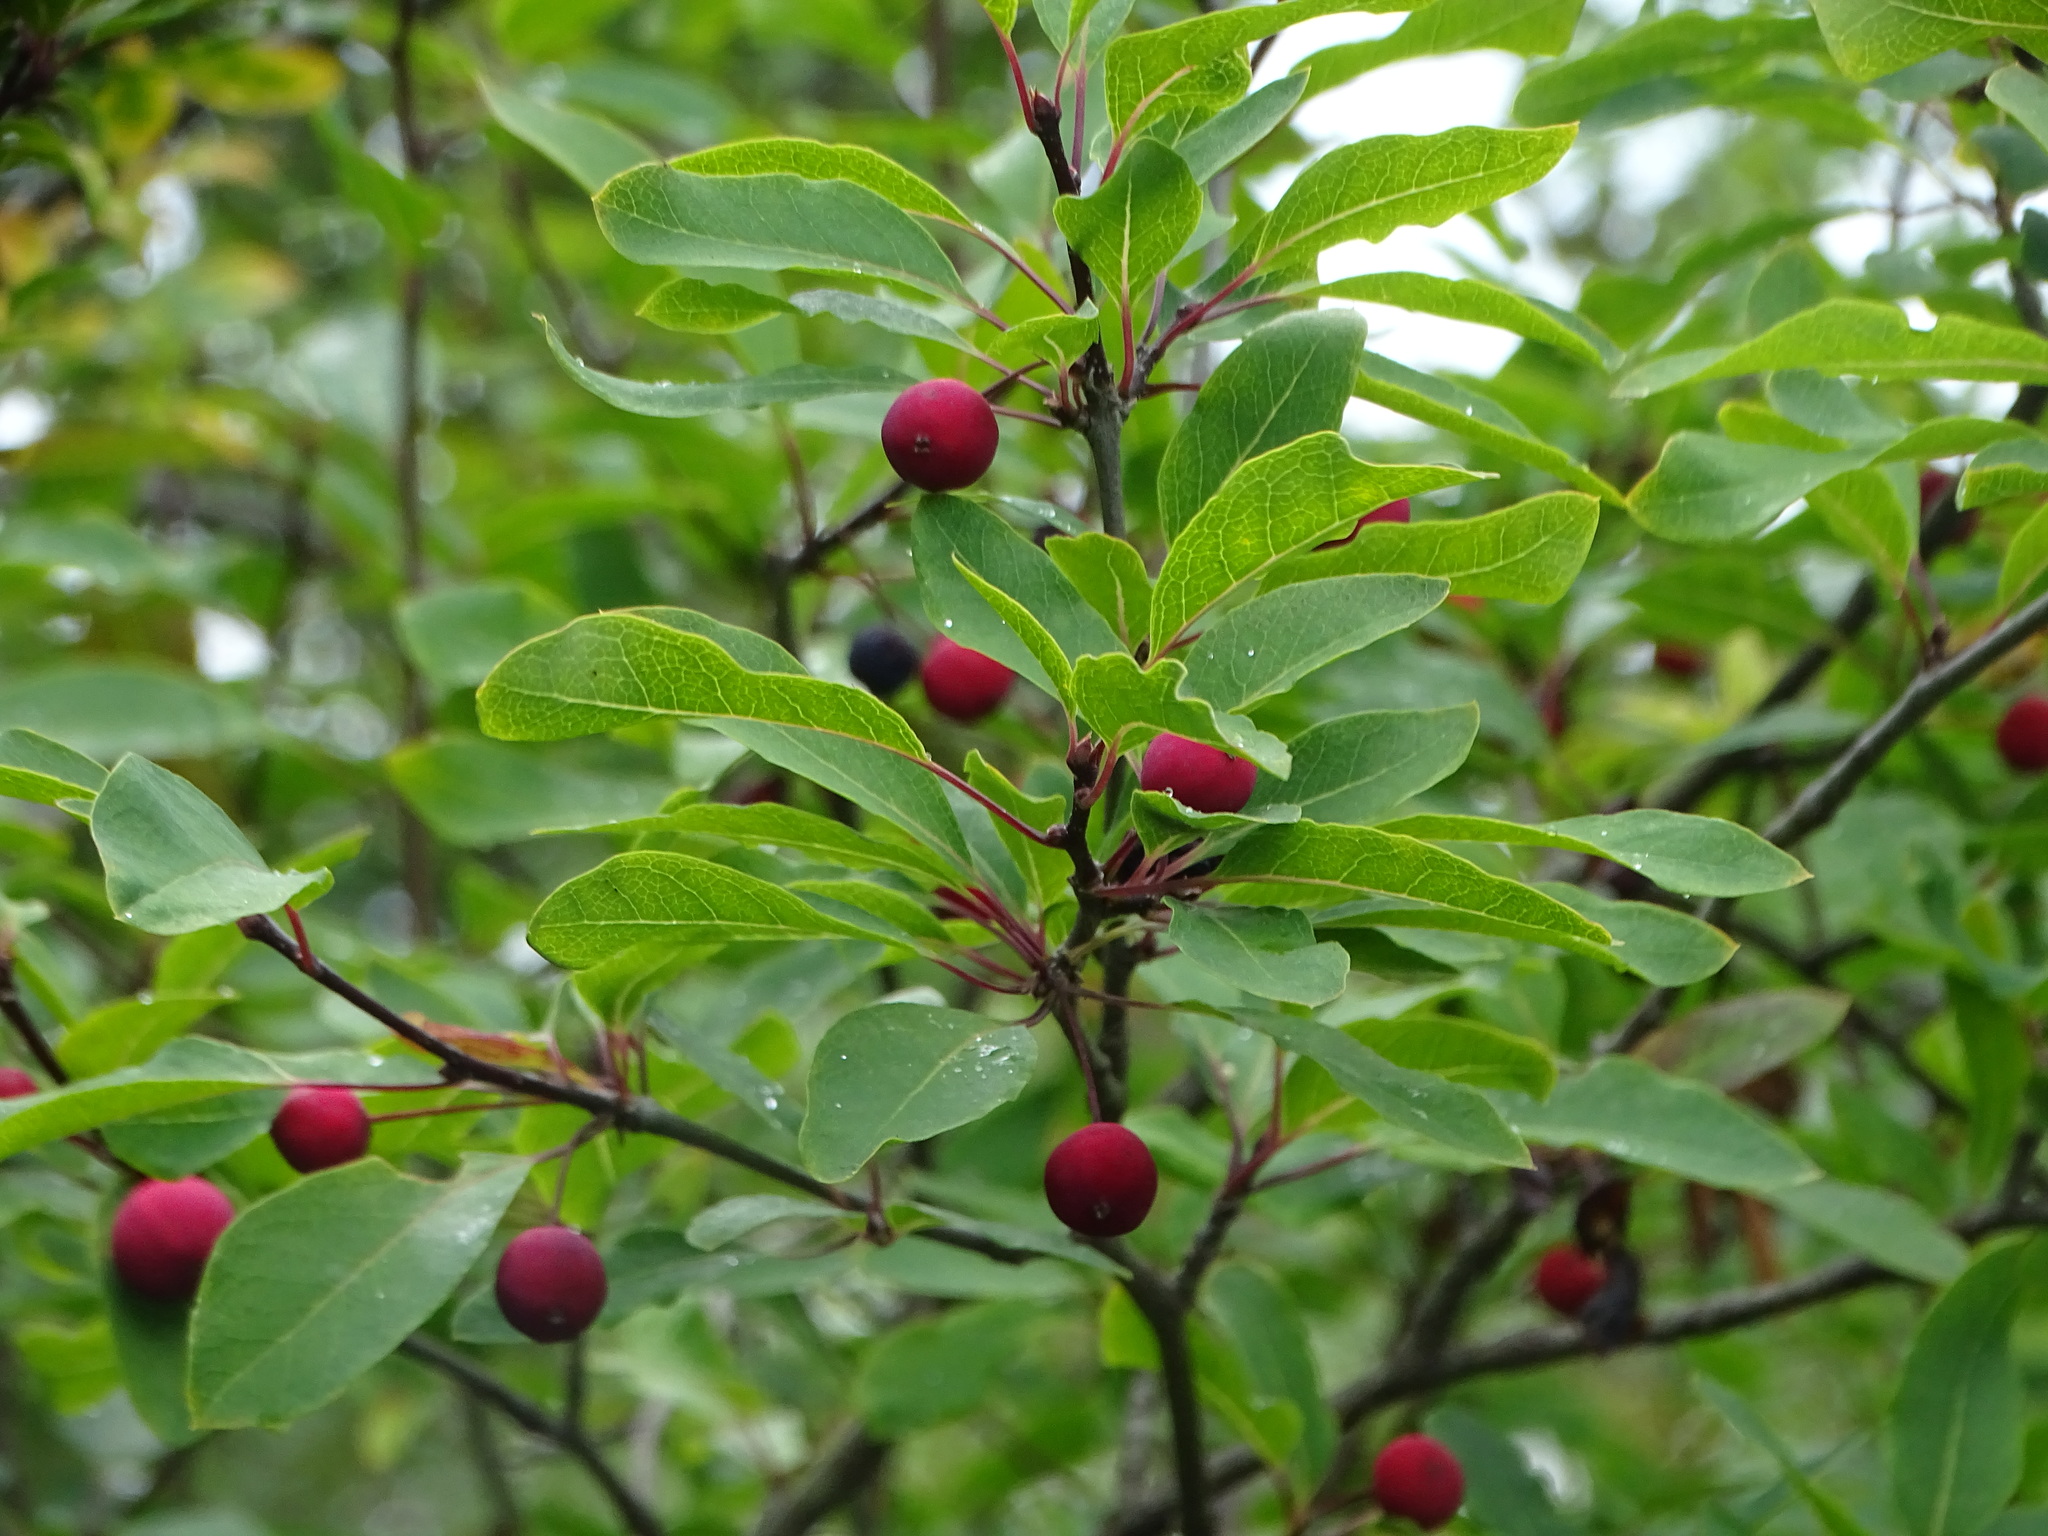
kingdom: Plantae
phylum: Tracheophyta
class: Magnoliopsida
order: Aquifoliales
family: Aquifoliaceae
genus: Ilex
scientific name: Ilex mucronata
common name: Catberry
